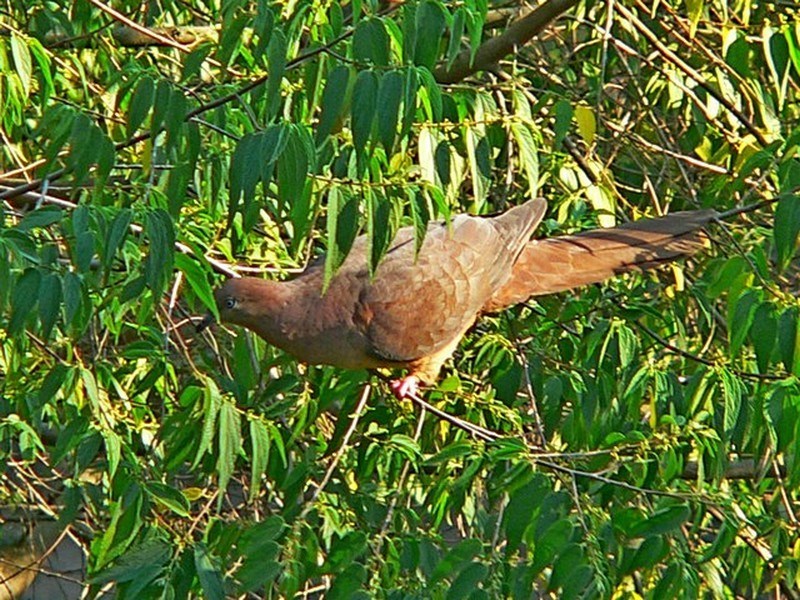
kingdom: Animalia
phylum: Chordata
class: Aves
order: Columbiformes
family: Columbidae
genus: Macropygia
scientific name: Macropygia phasianella
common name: Brown cuckoo-dove
